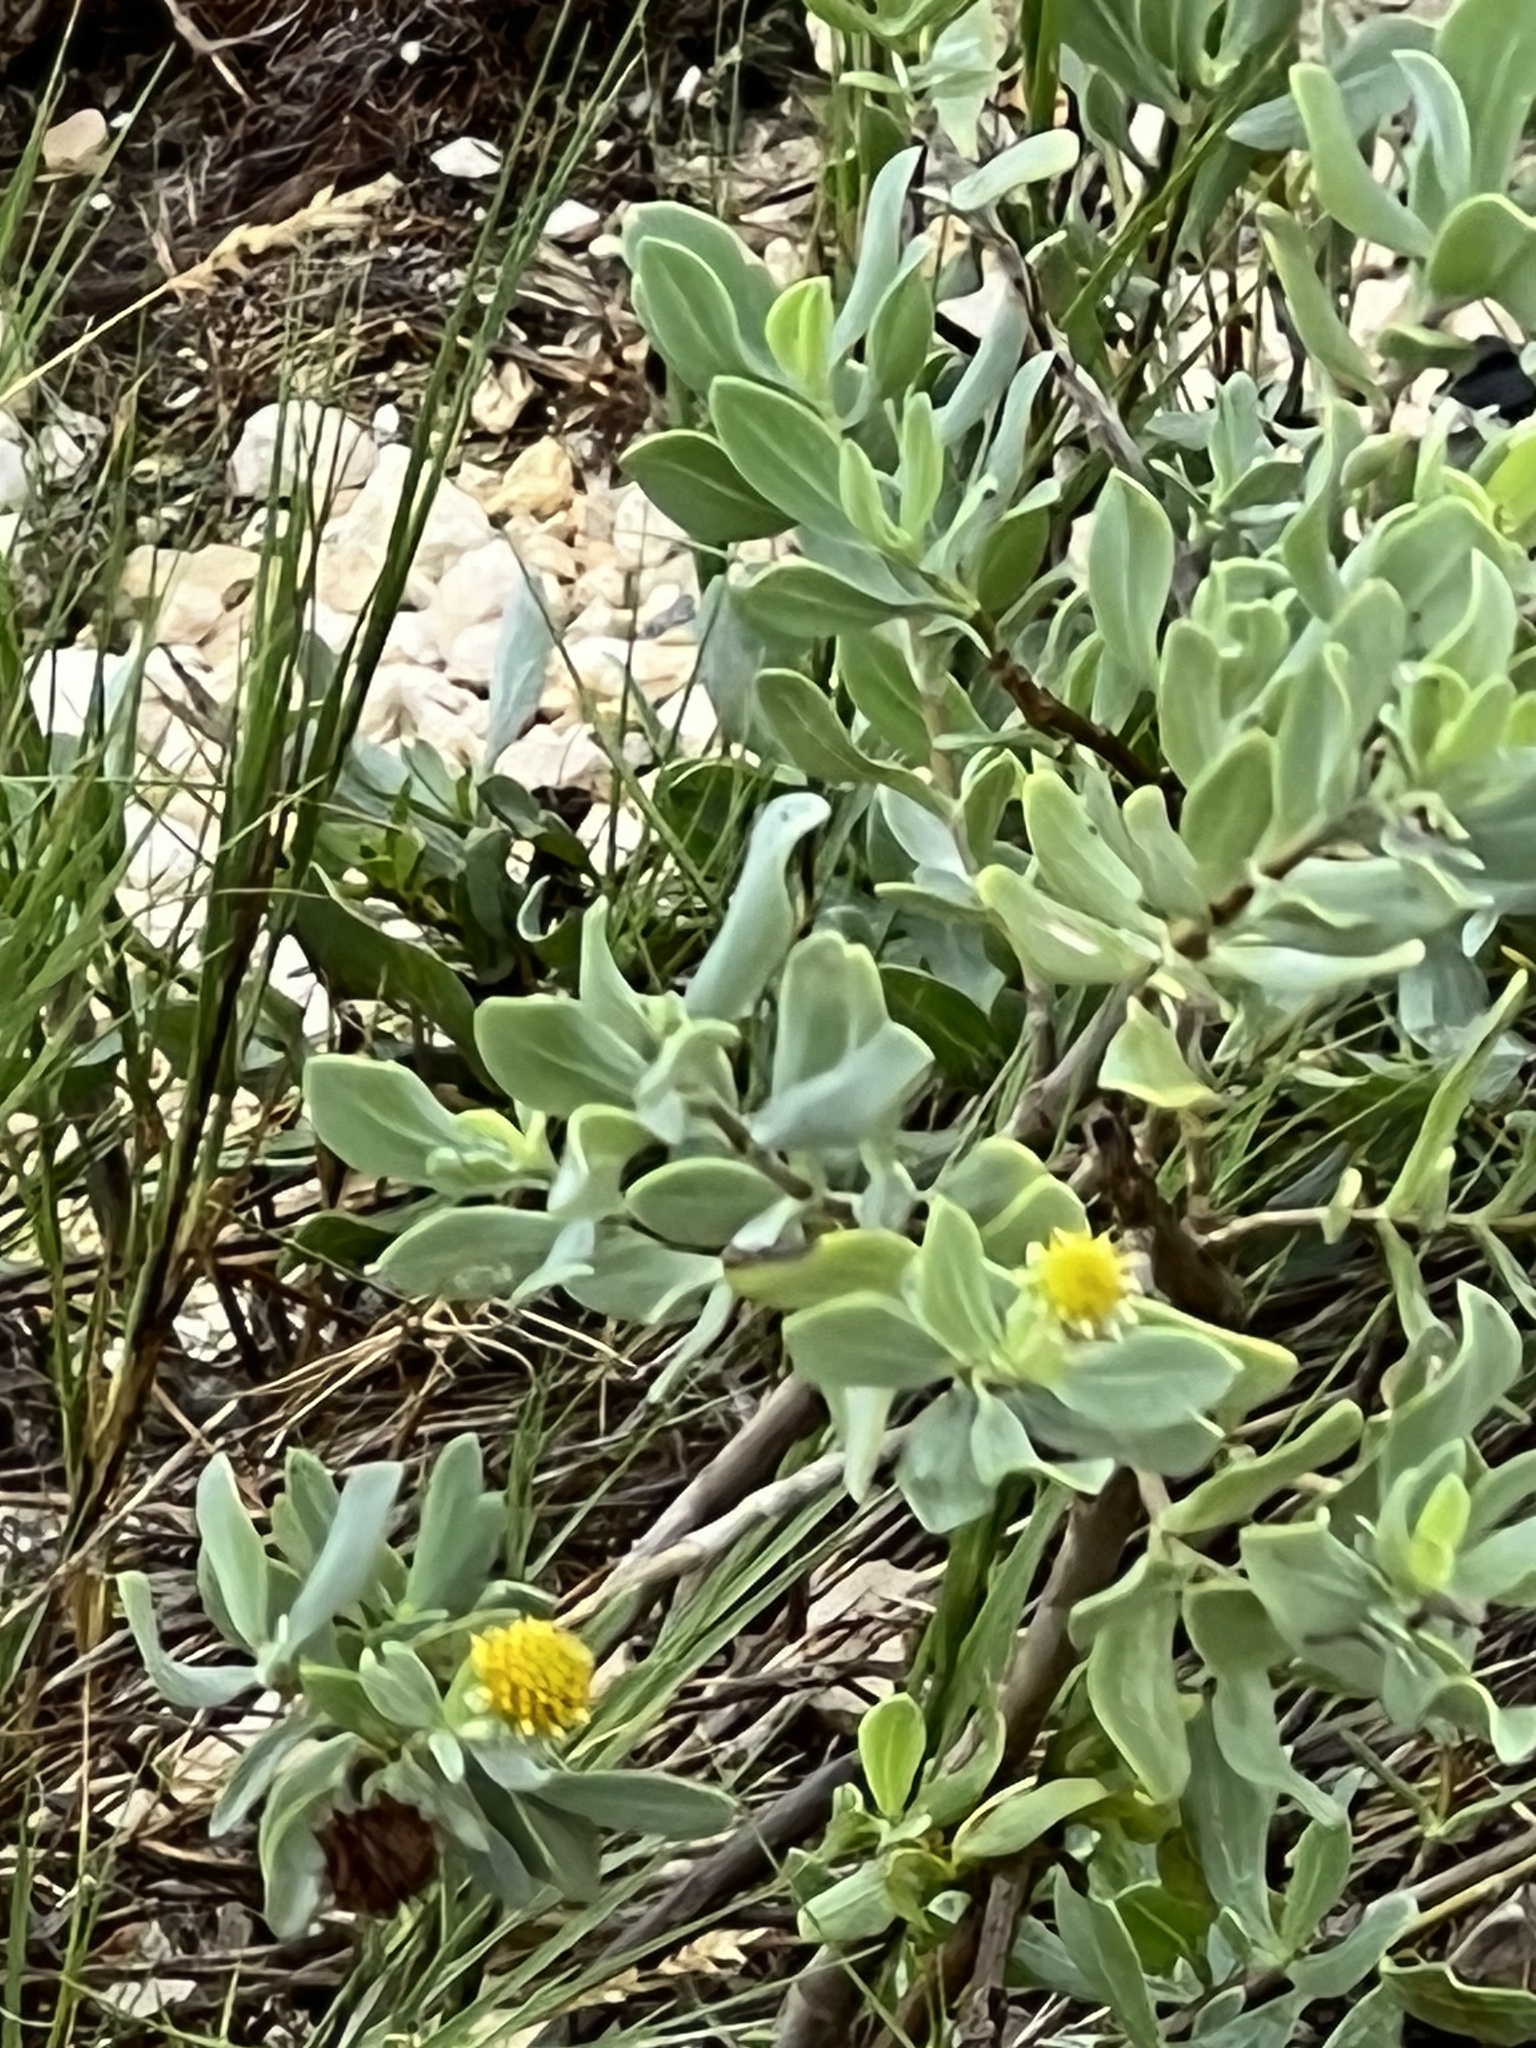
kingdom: Plantae
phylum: Tracheophyta
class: Magnoliopsida
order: Asterales
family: Asteraceae
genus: Borrichia
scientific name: Borrichia frutescens
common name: Sea oxeye
